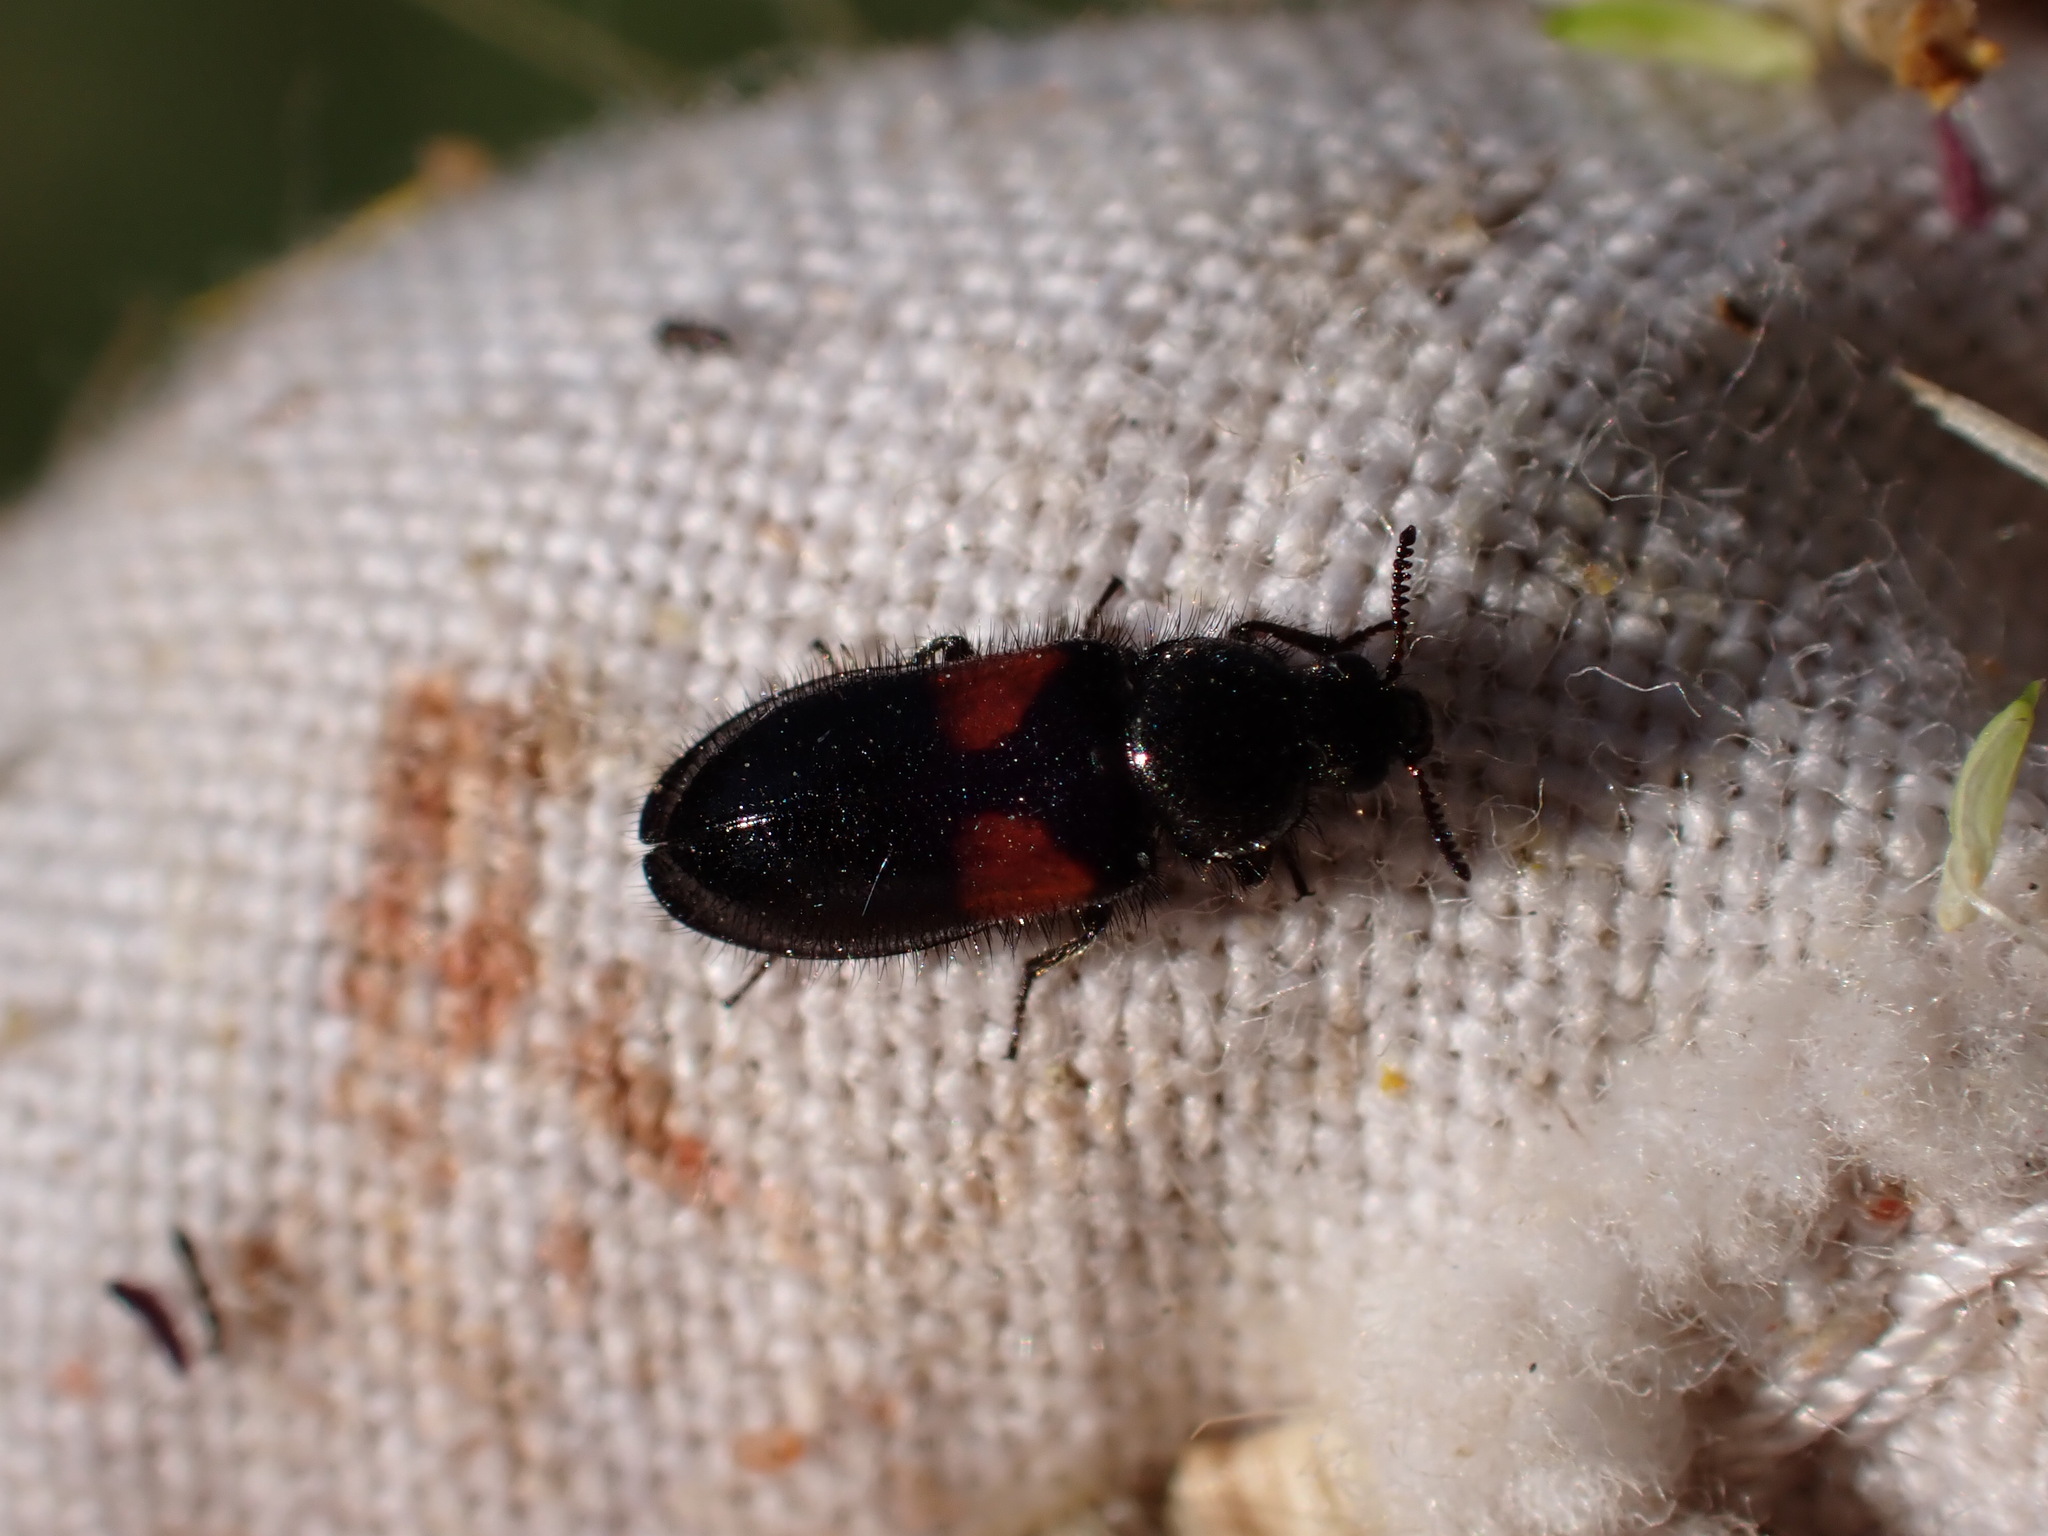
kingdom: Animalia
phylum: Arthropoda
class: Insecta
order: Coleoptera
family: Melyridae
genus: Divales
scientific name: Divales bipustulatus
